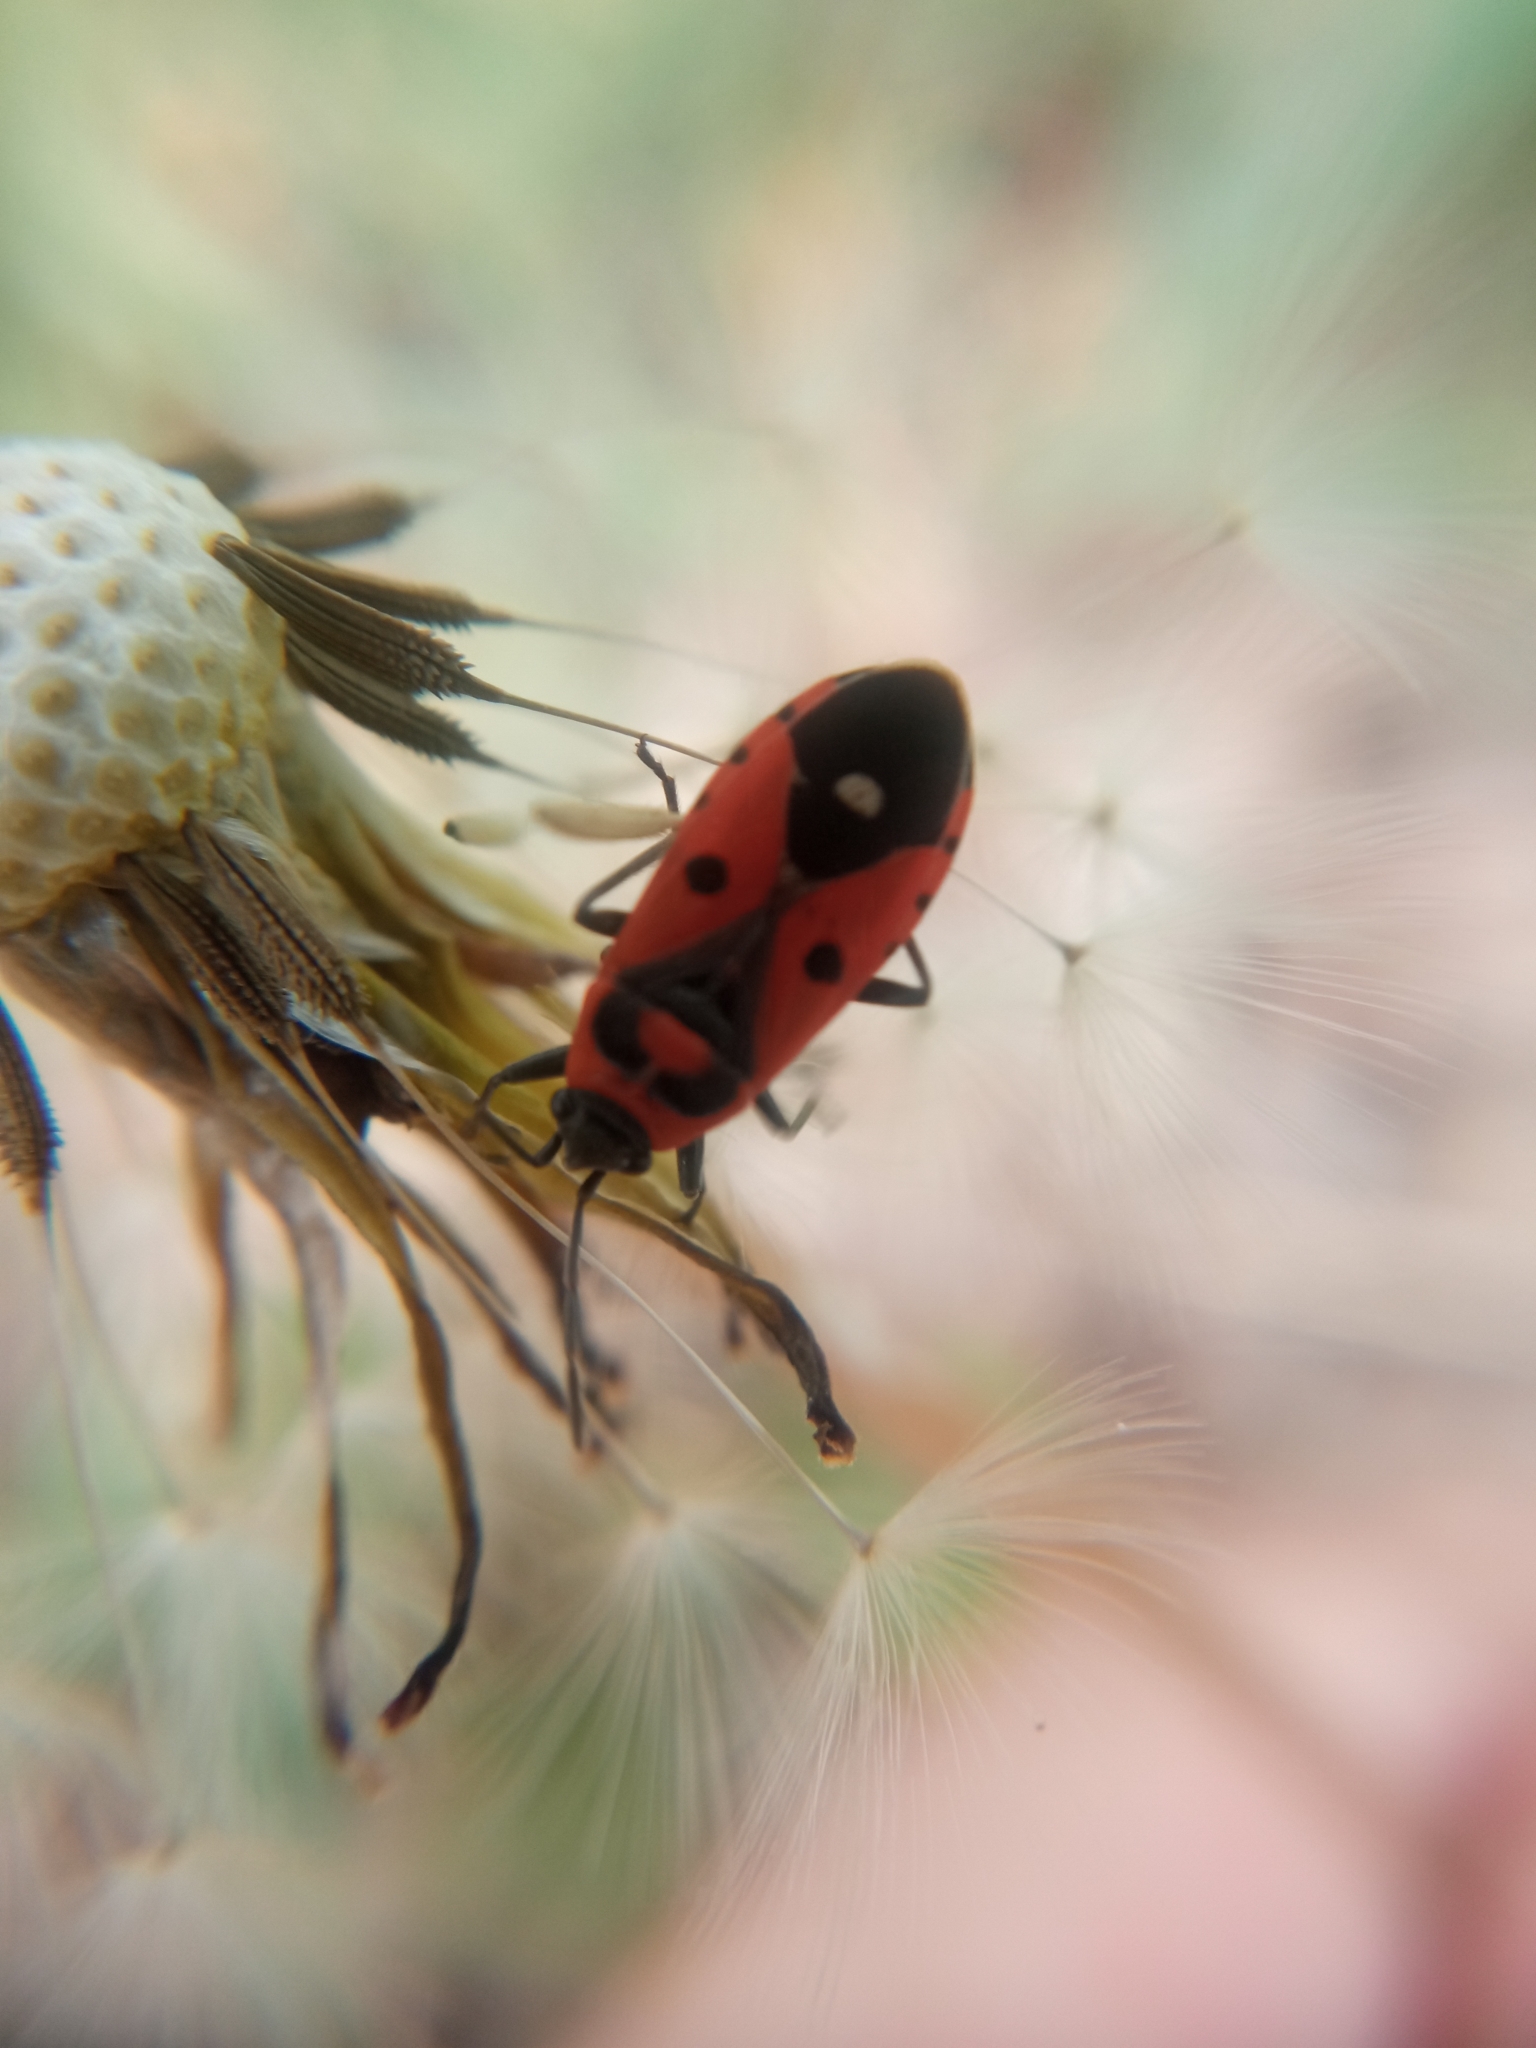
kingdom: Animalia
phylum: Arthropoda
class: Insecta
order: Hemiptera
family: Lygaeidae
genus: Melanocoryphus
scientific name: Melanocoryphus albomaculatus
